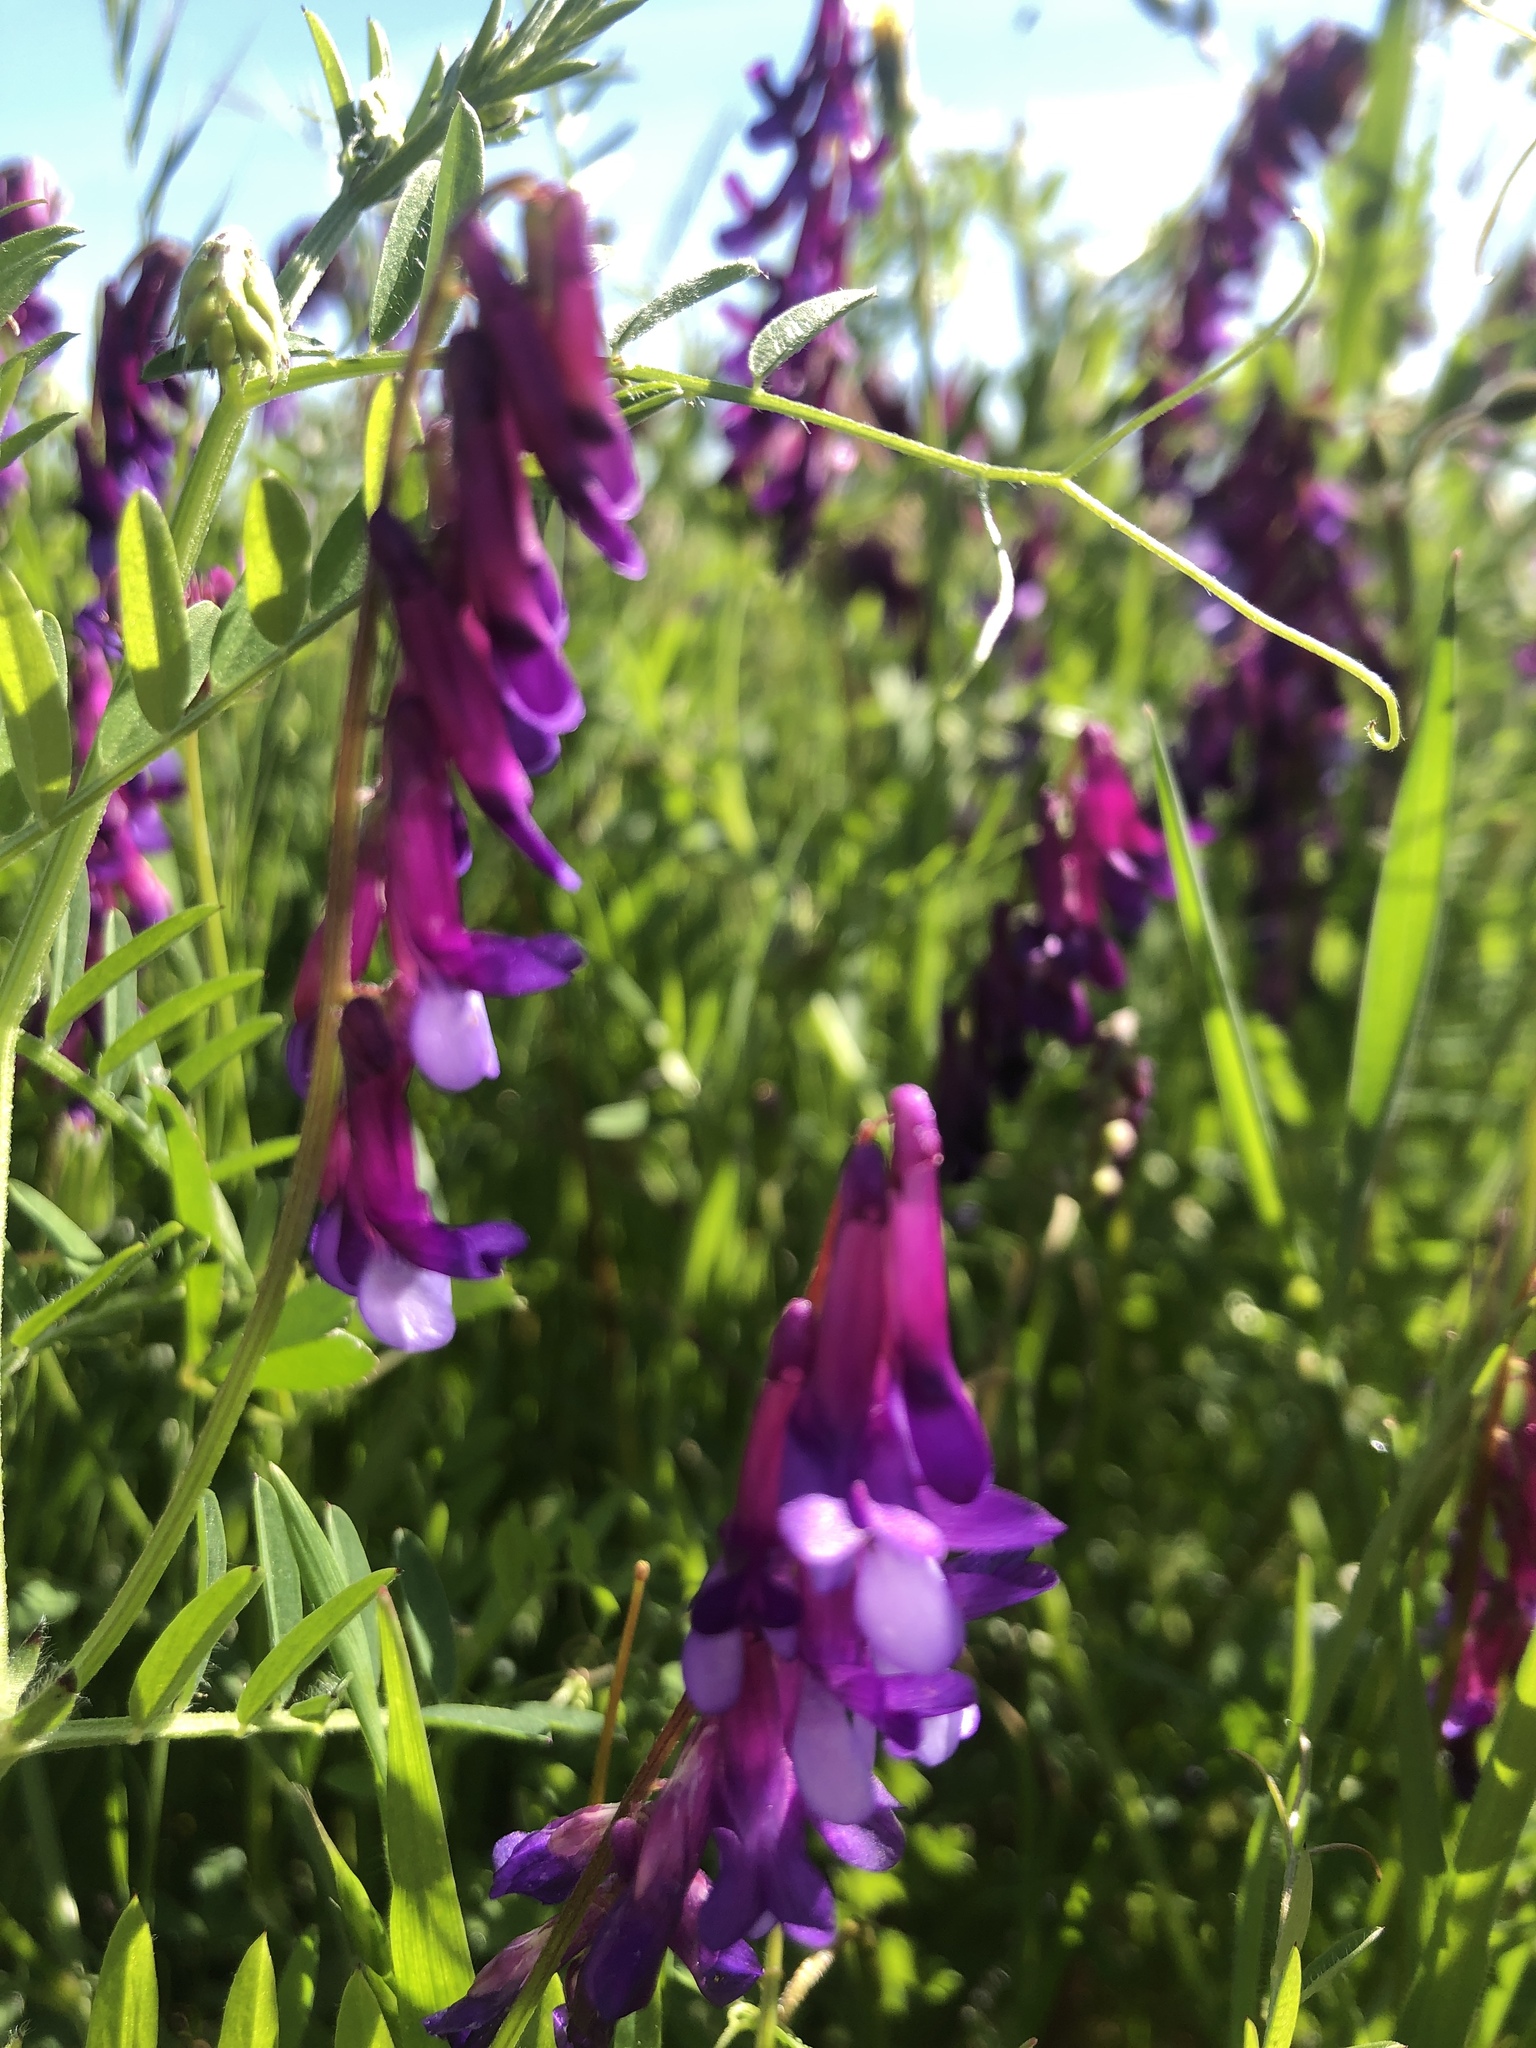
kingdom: Plantae
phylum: Tracheophyta
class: Magnoliopsida
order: Fabales
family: Fabaceae
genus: Vicia
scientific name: Vicia villosa
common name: Fodder vetch
